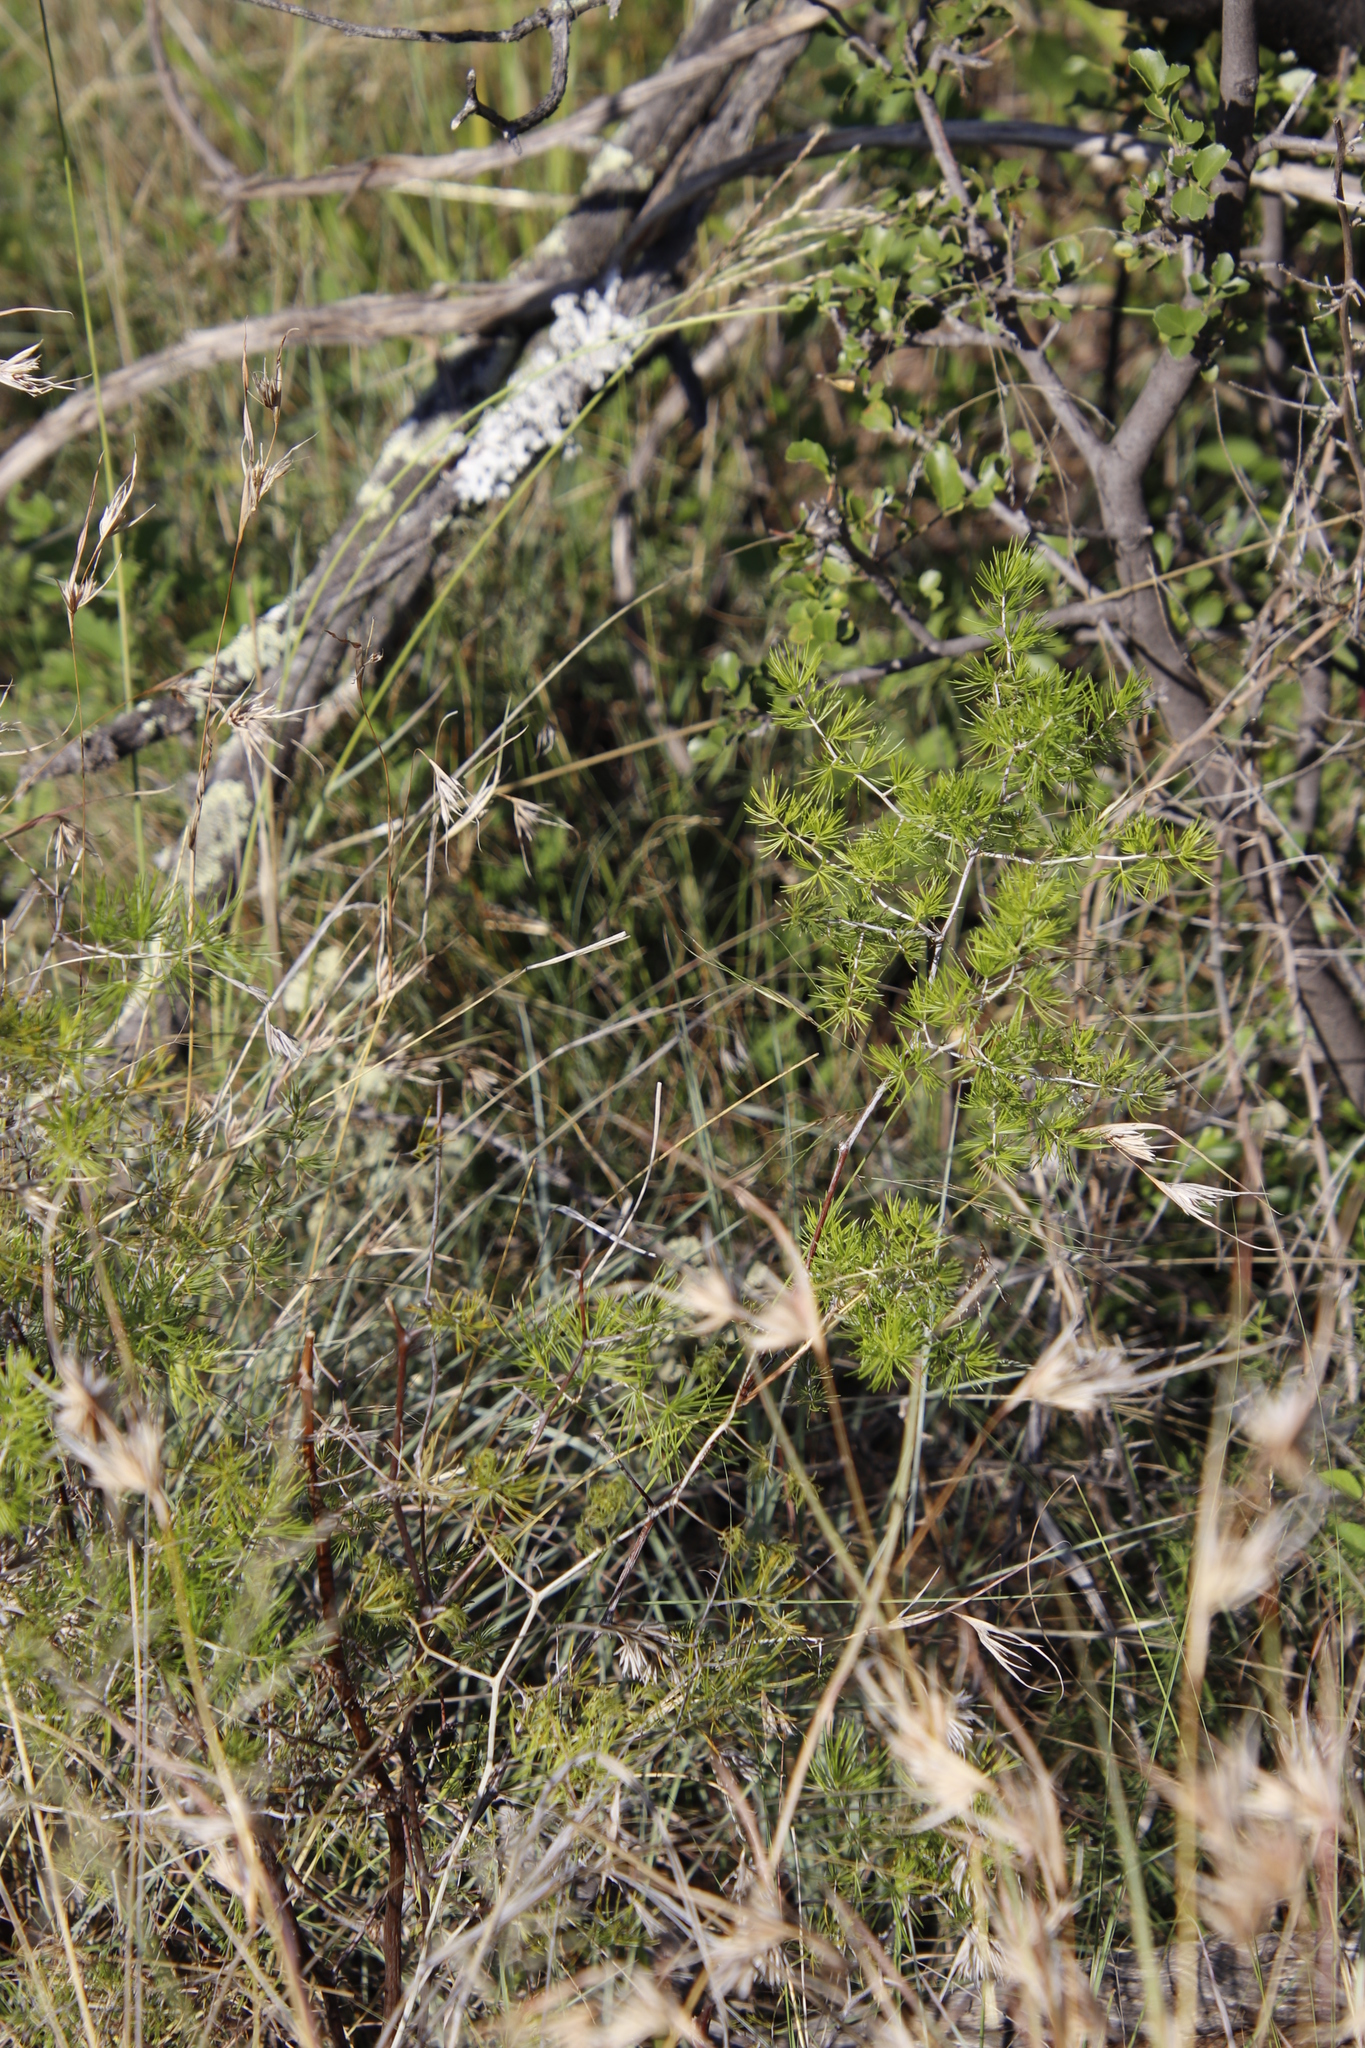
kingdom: Plantae
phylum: Tracheophyta
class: Liliopsida
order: Asparagales
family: Asparagaceae
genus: Asparagus
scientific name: Asparagus retrofractus
